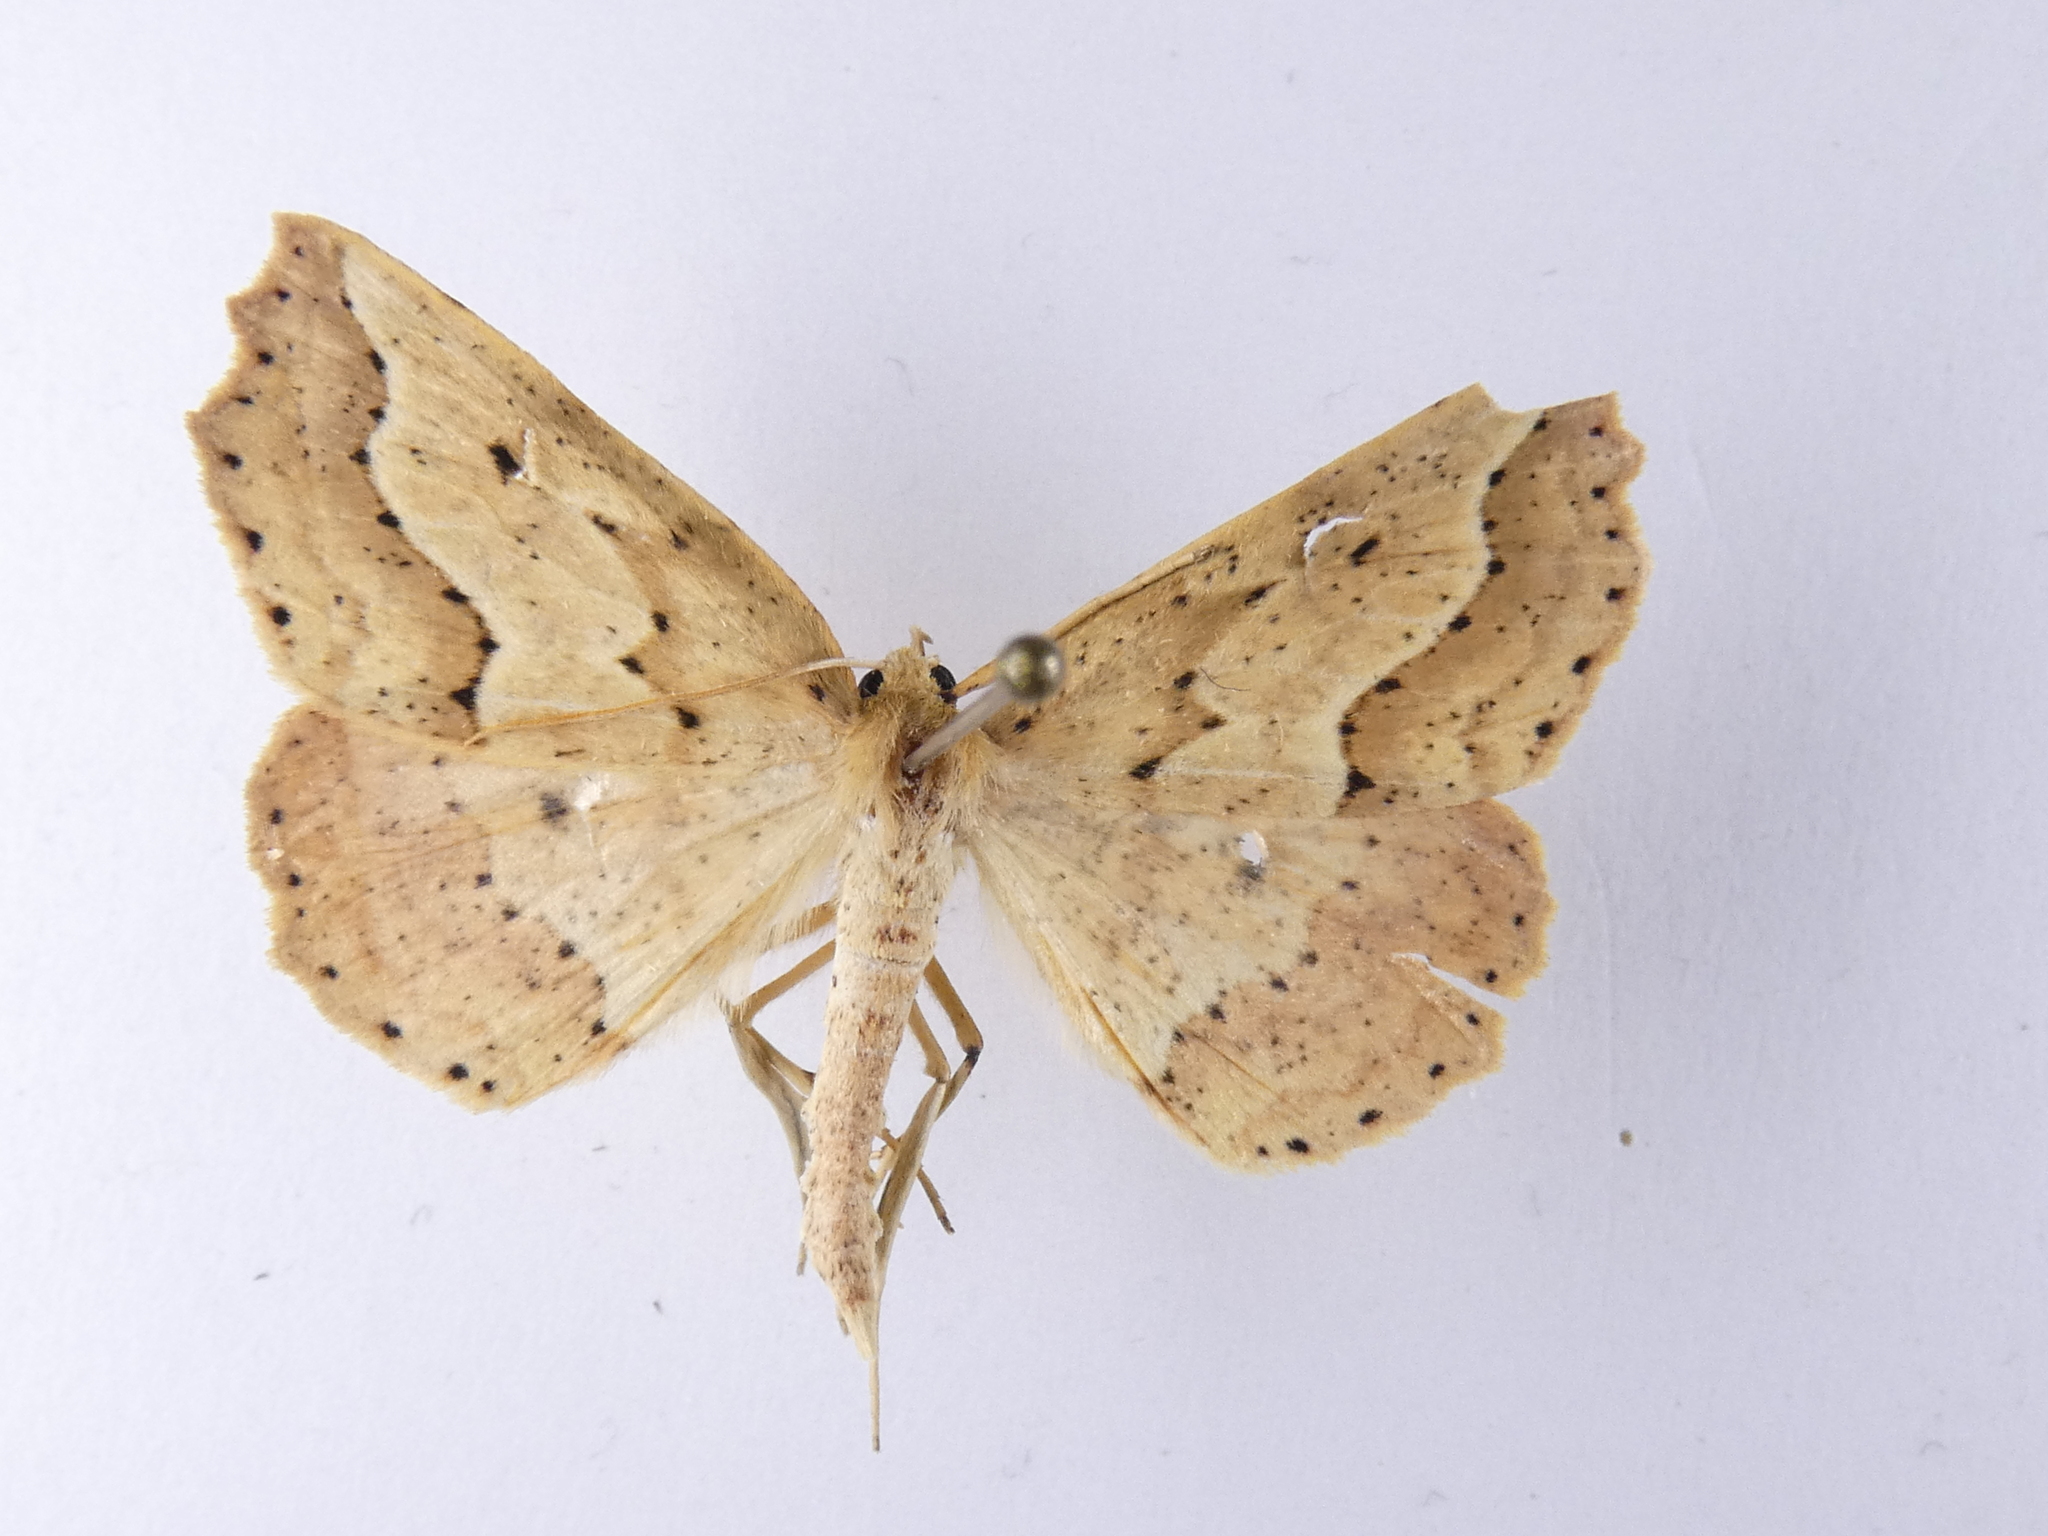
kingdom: Animalia
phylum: Arthropoda
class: Insecta
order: Lepidoptera
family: Geometridae
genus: Ischalis
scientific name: Ischalis variabilis
